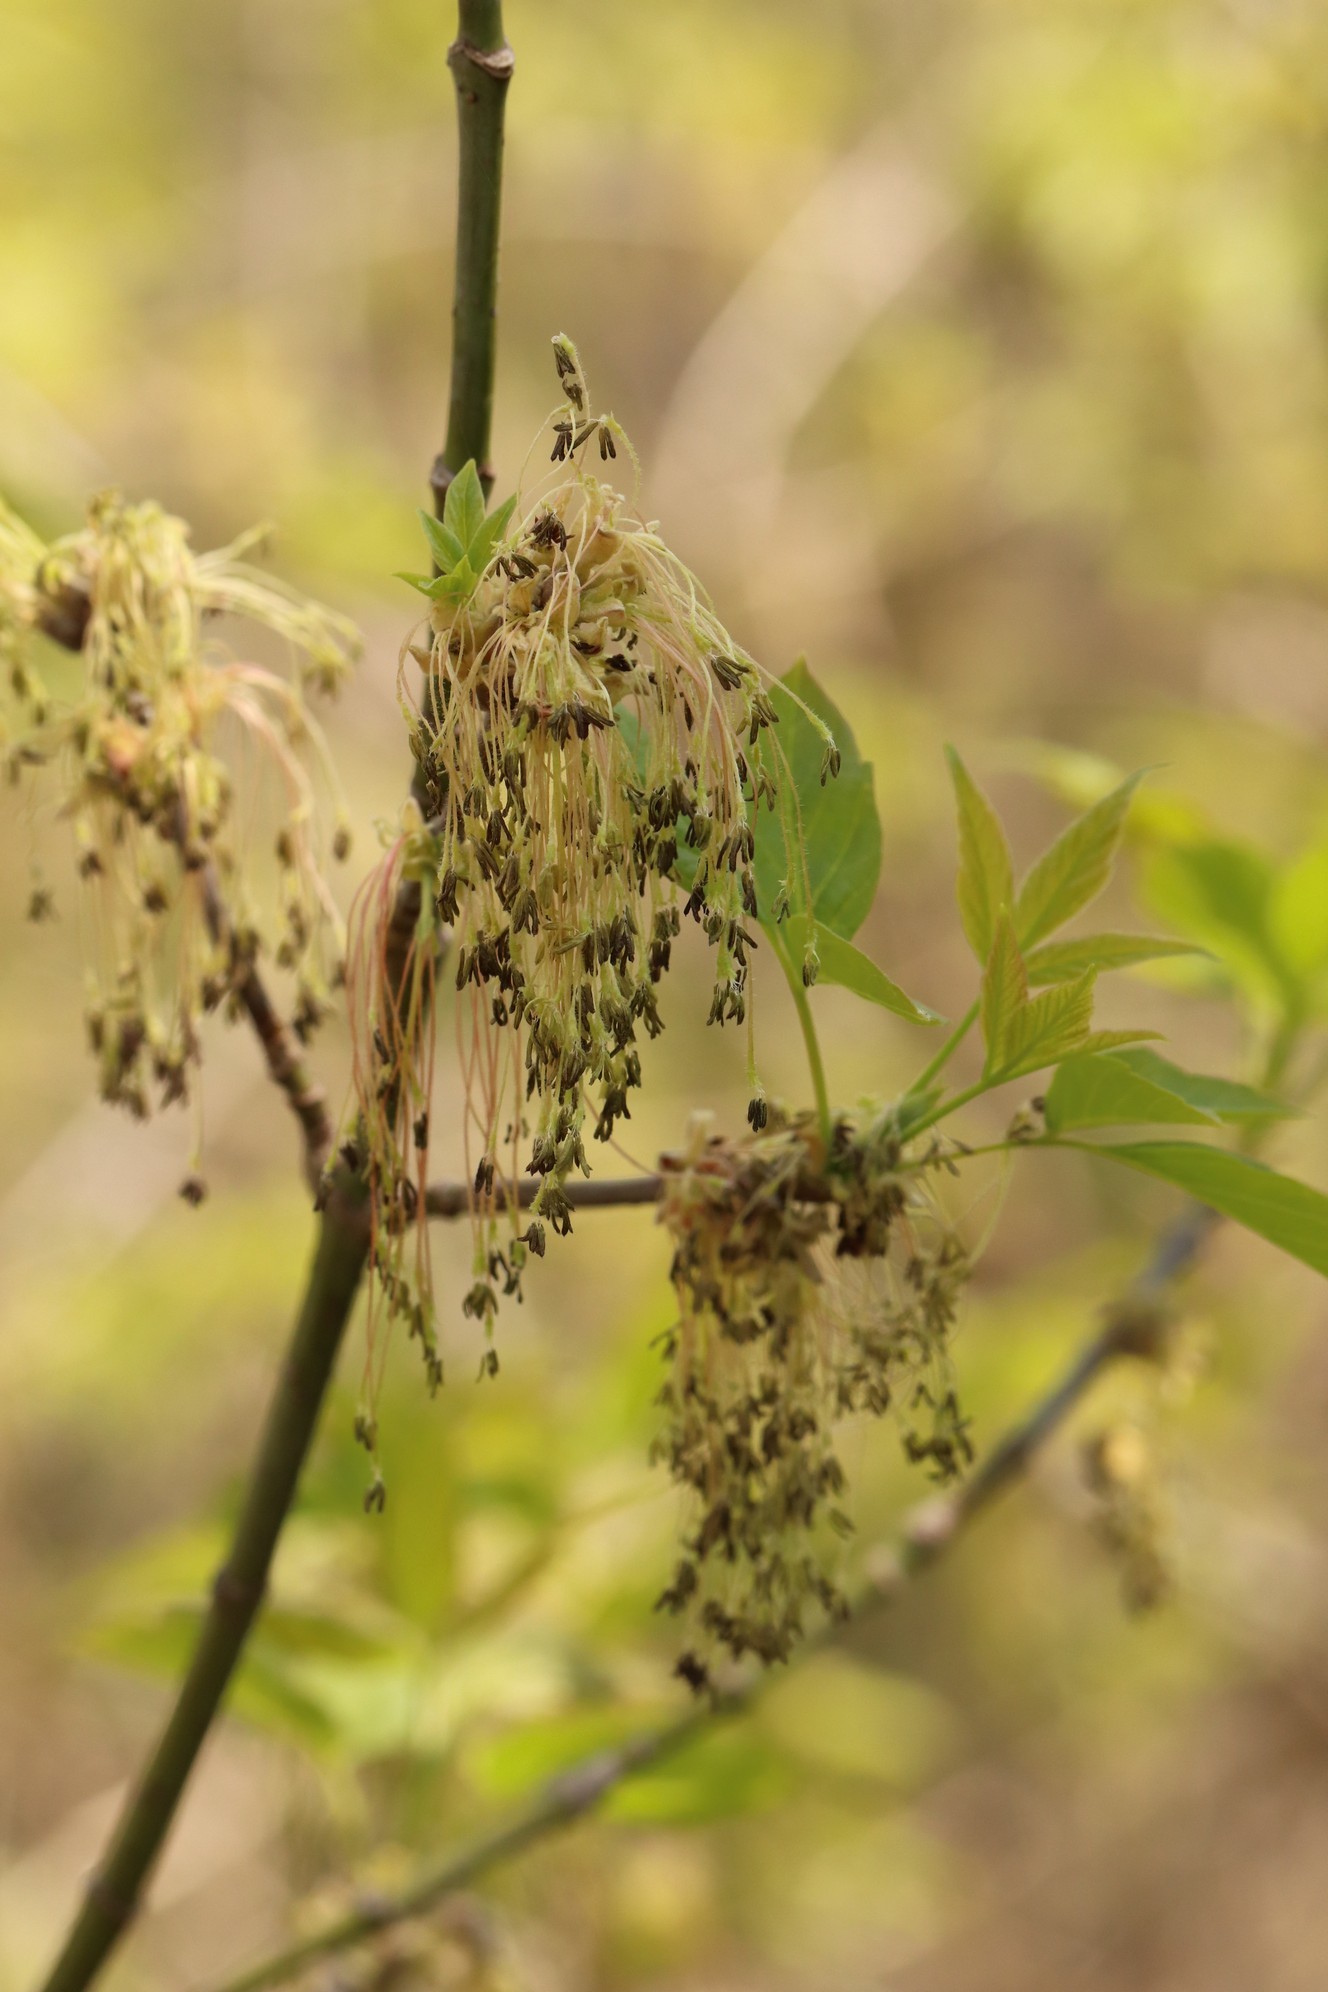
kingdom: Plantae
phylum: Tracheophyta
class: Magnoliopsida
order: Sapindales
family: Sapindaceae
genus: Acer
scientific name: Acer negundo
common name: Ashleaf maple
